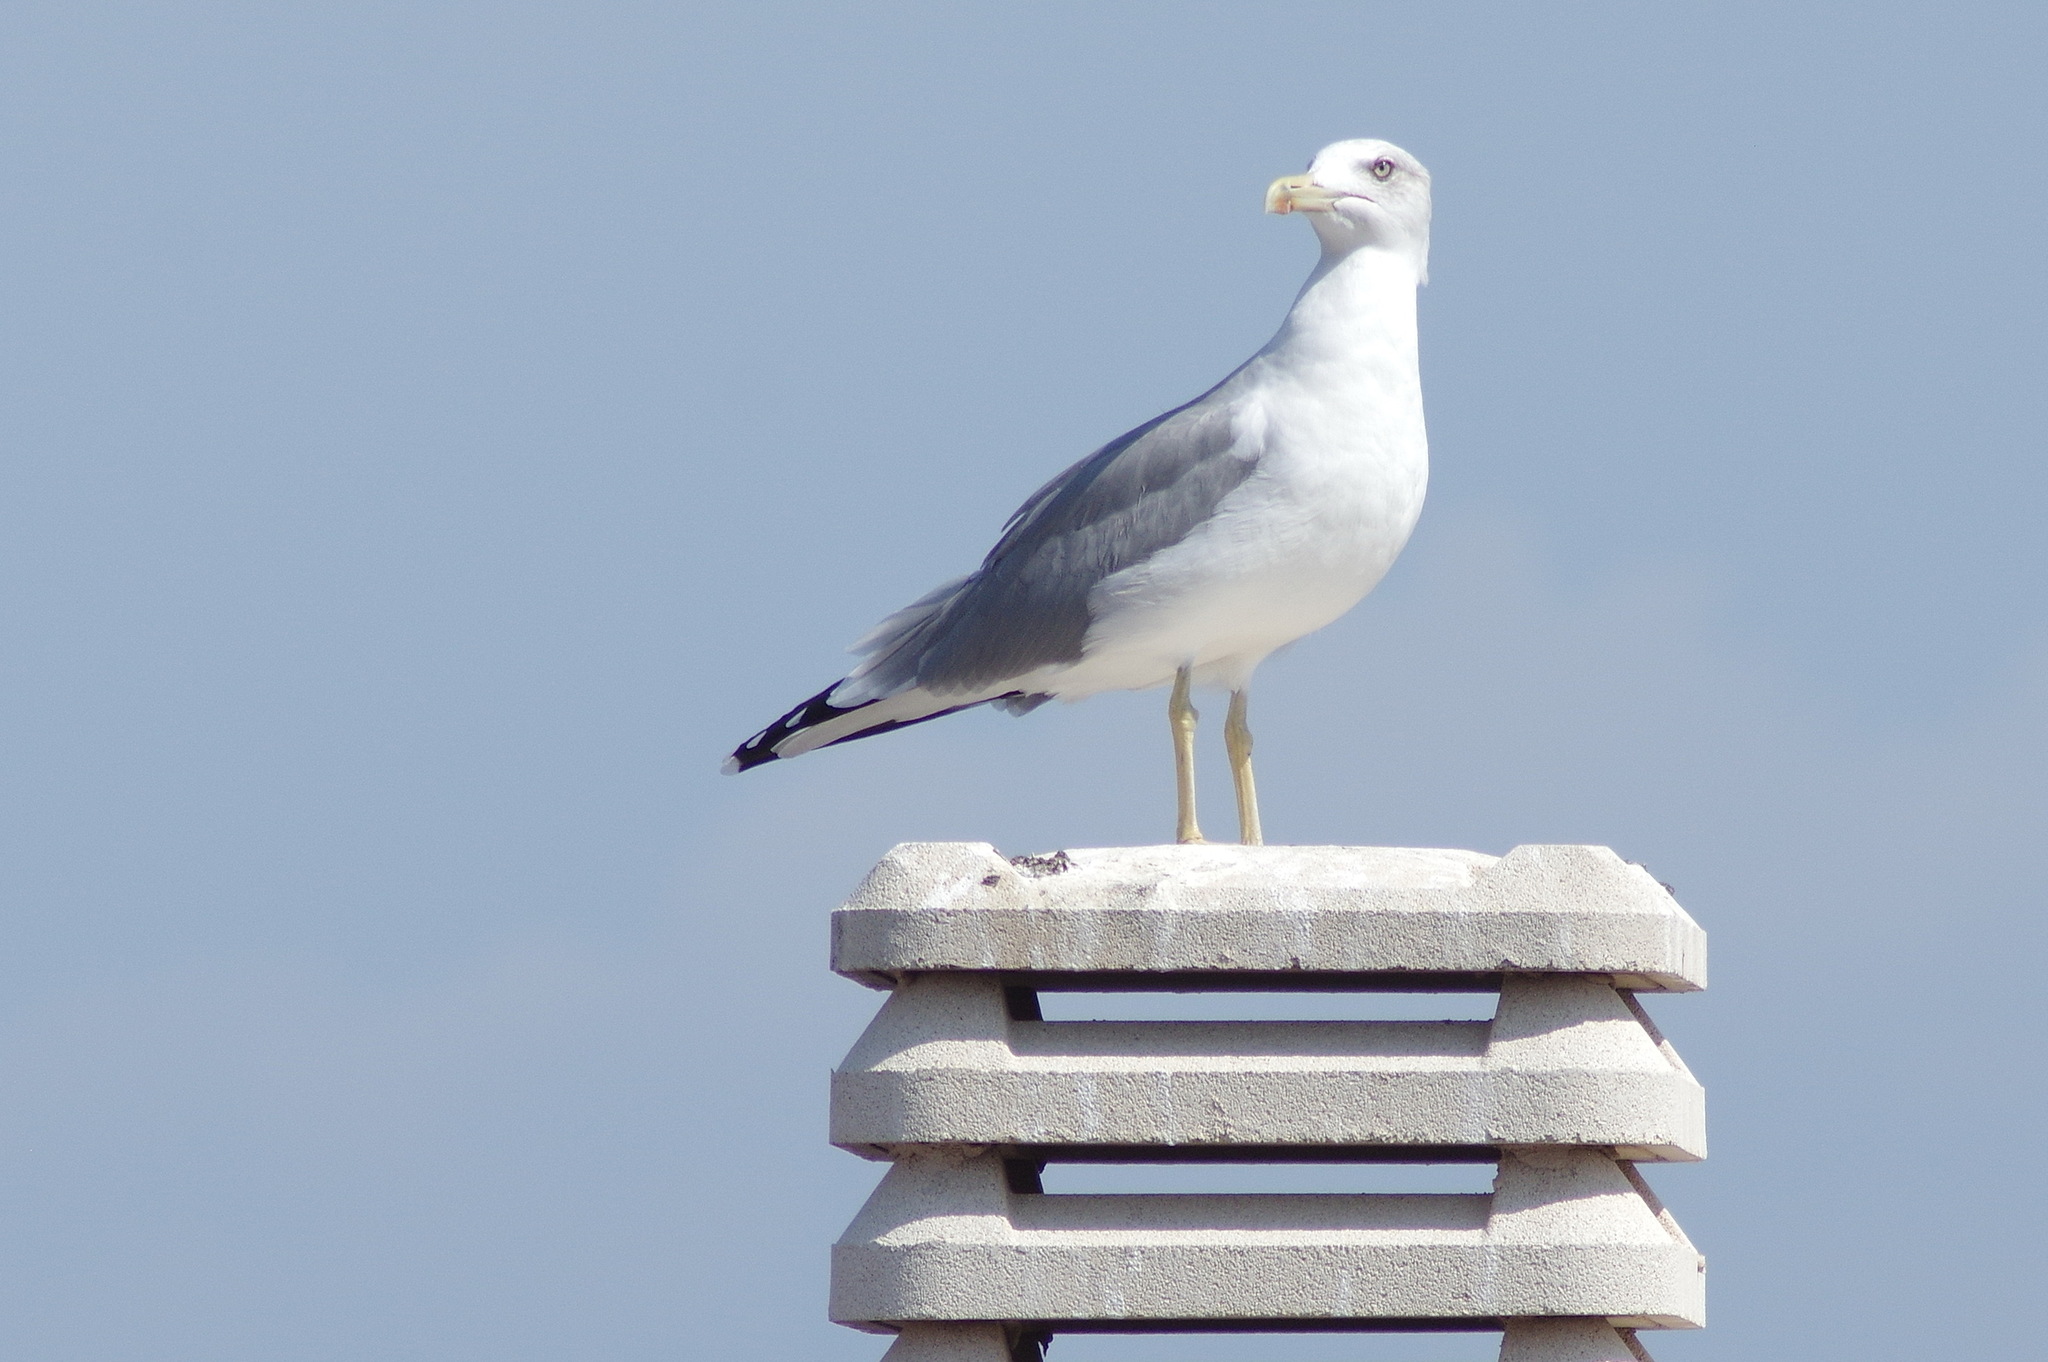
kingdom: Animalia
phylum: Chordata
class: Aves
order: Charadriiformes
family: Laridae
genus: Larus
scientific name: Larus michahellis
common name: Yellow-legged gull
